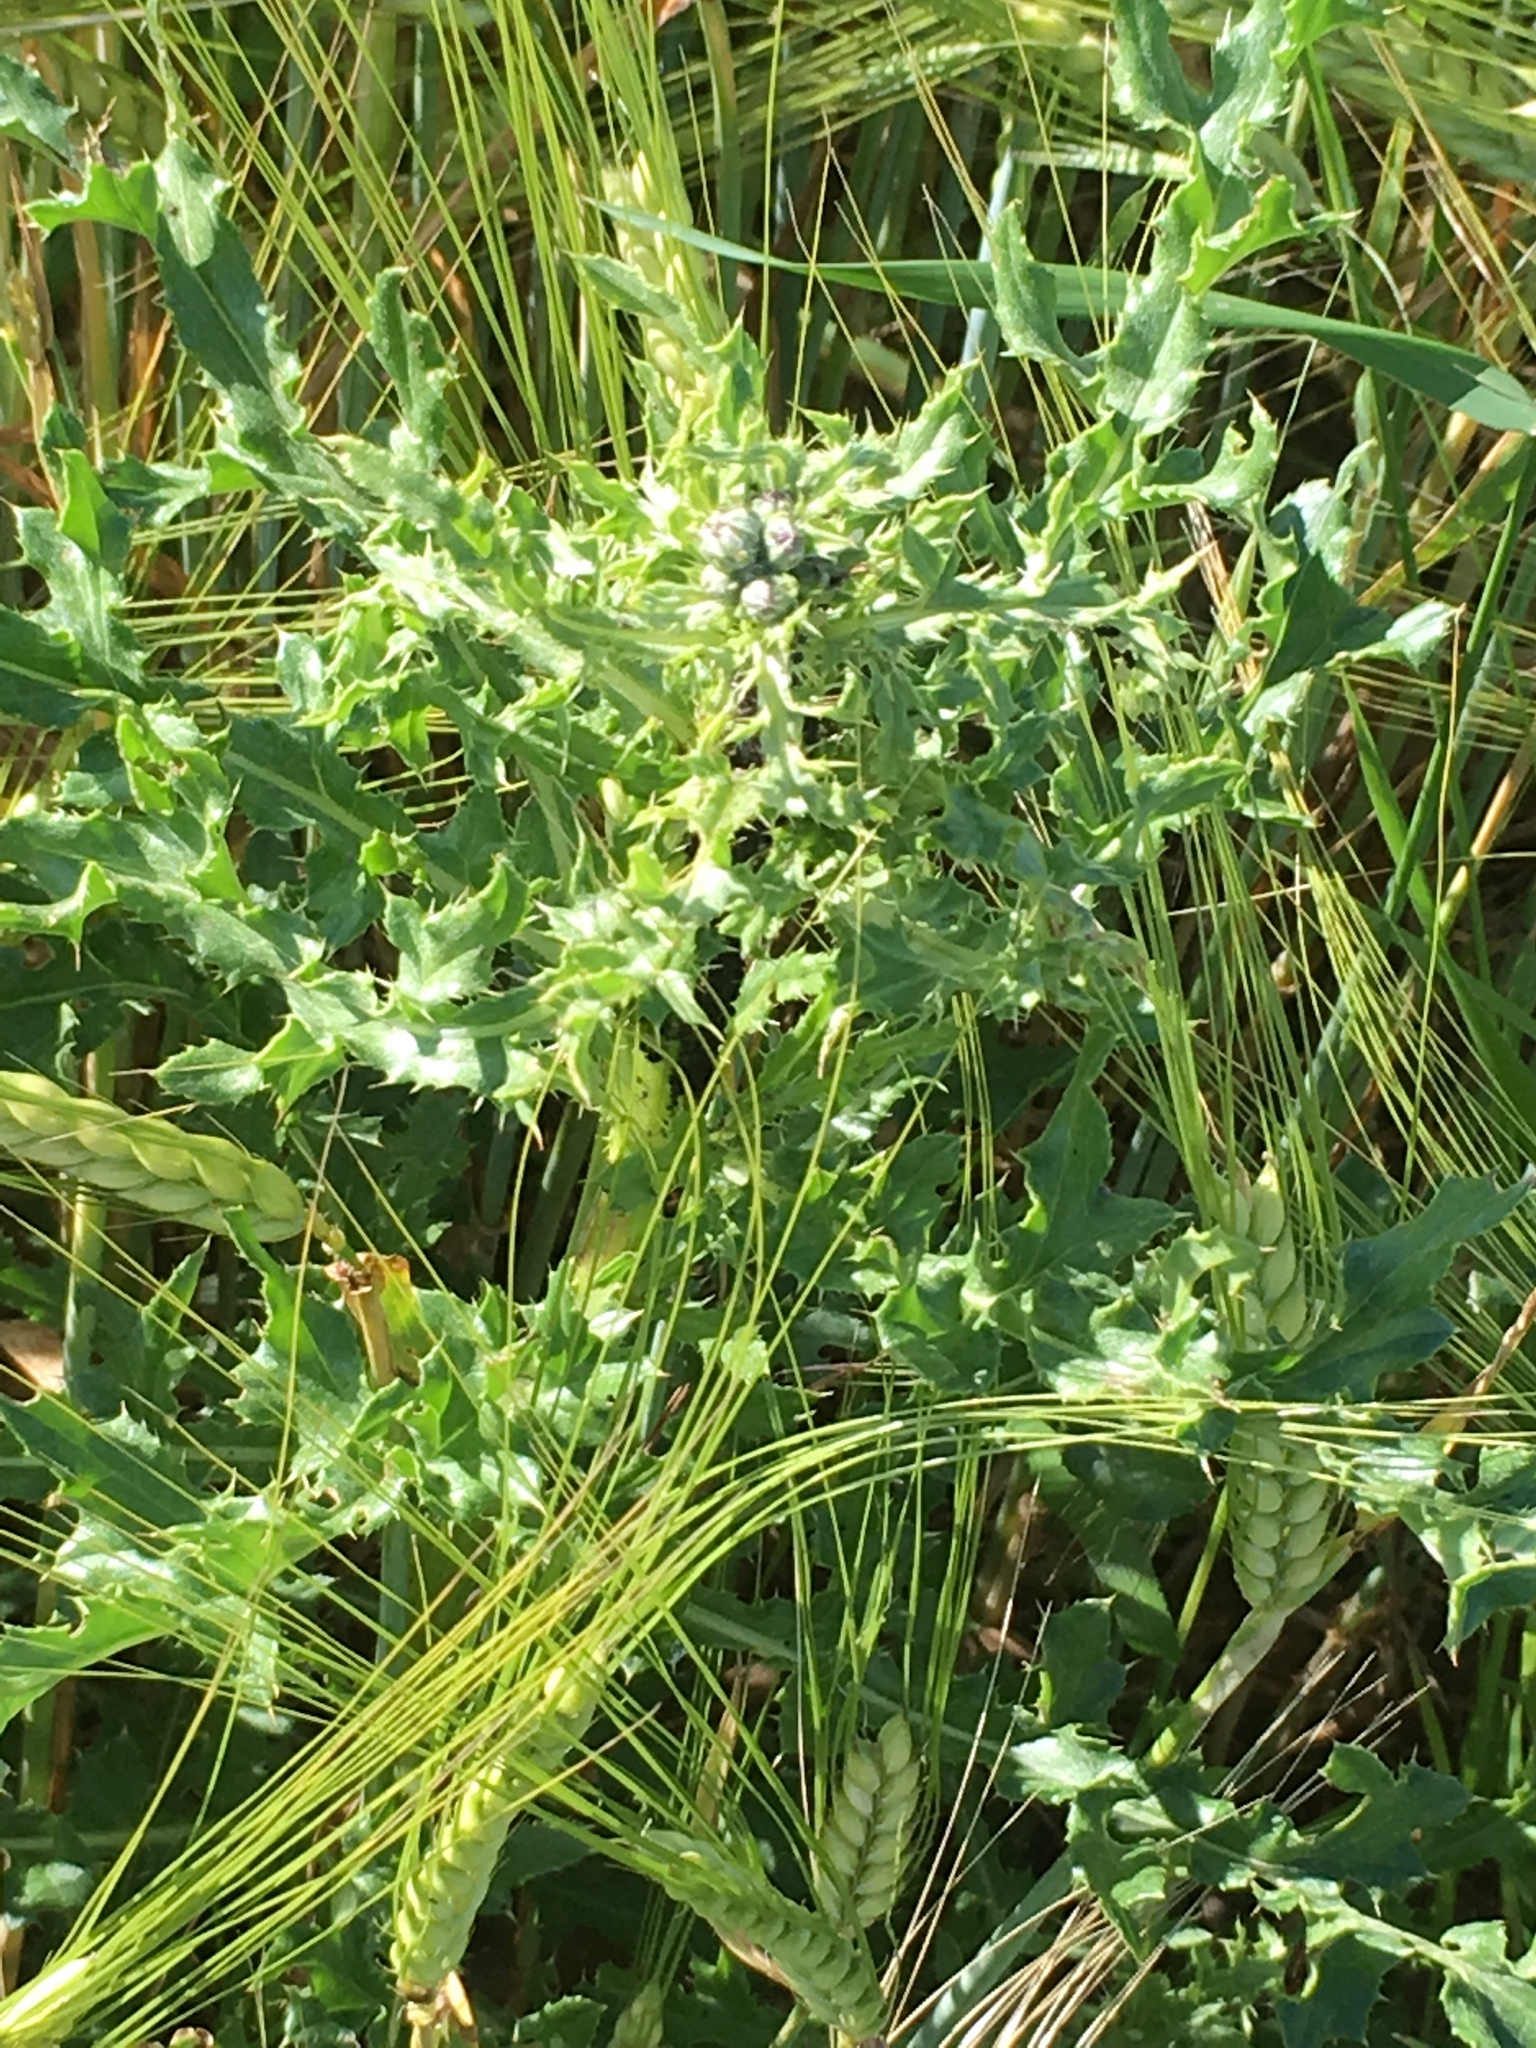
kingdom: Plantae
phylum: Tracheophyta
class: Magnoliopsida
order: Asterales
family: Asteraceae
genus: Cirsium
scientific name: Cirsium arvense
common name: Creeping thistle
